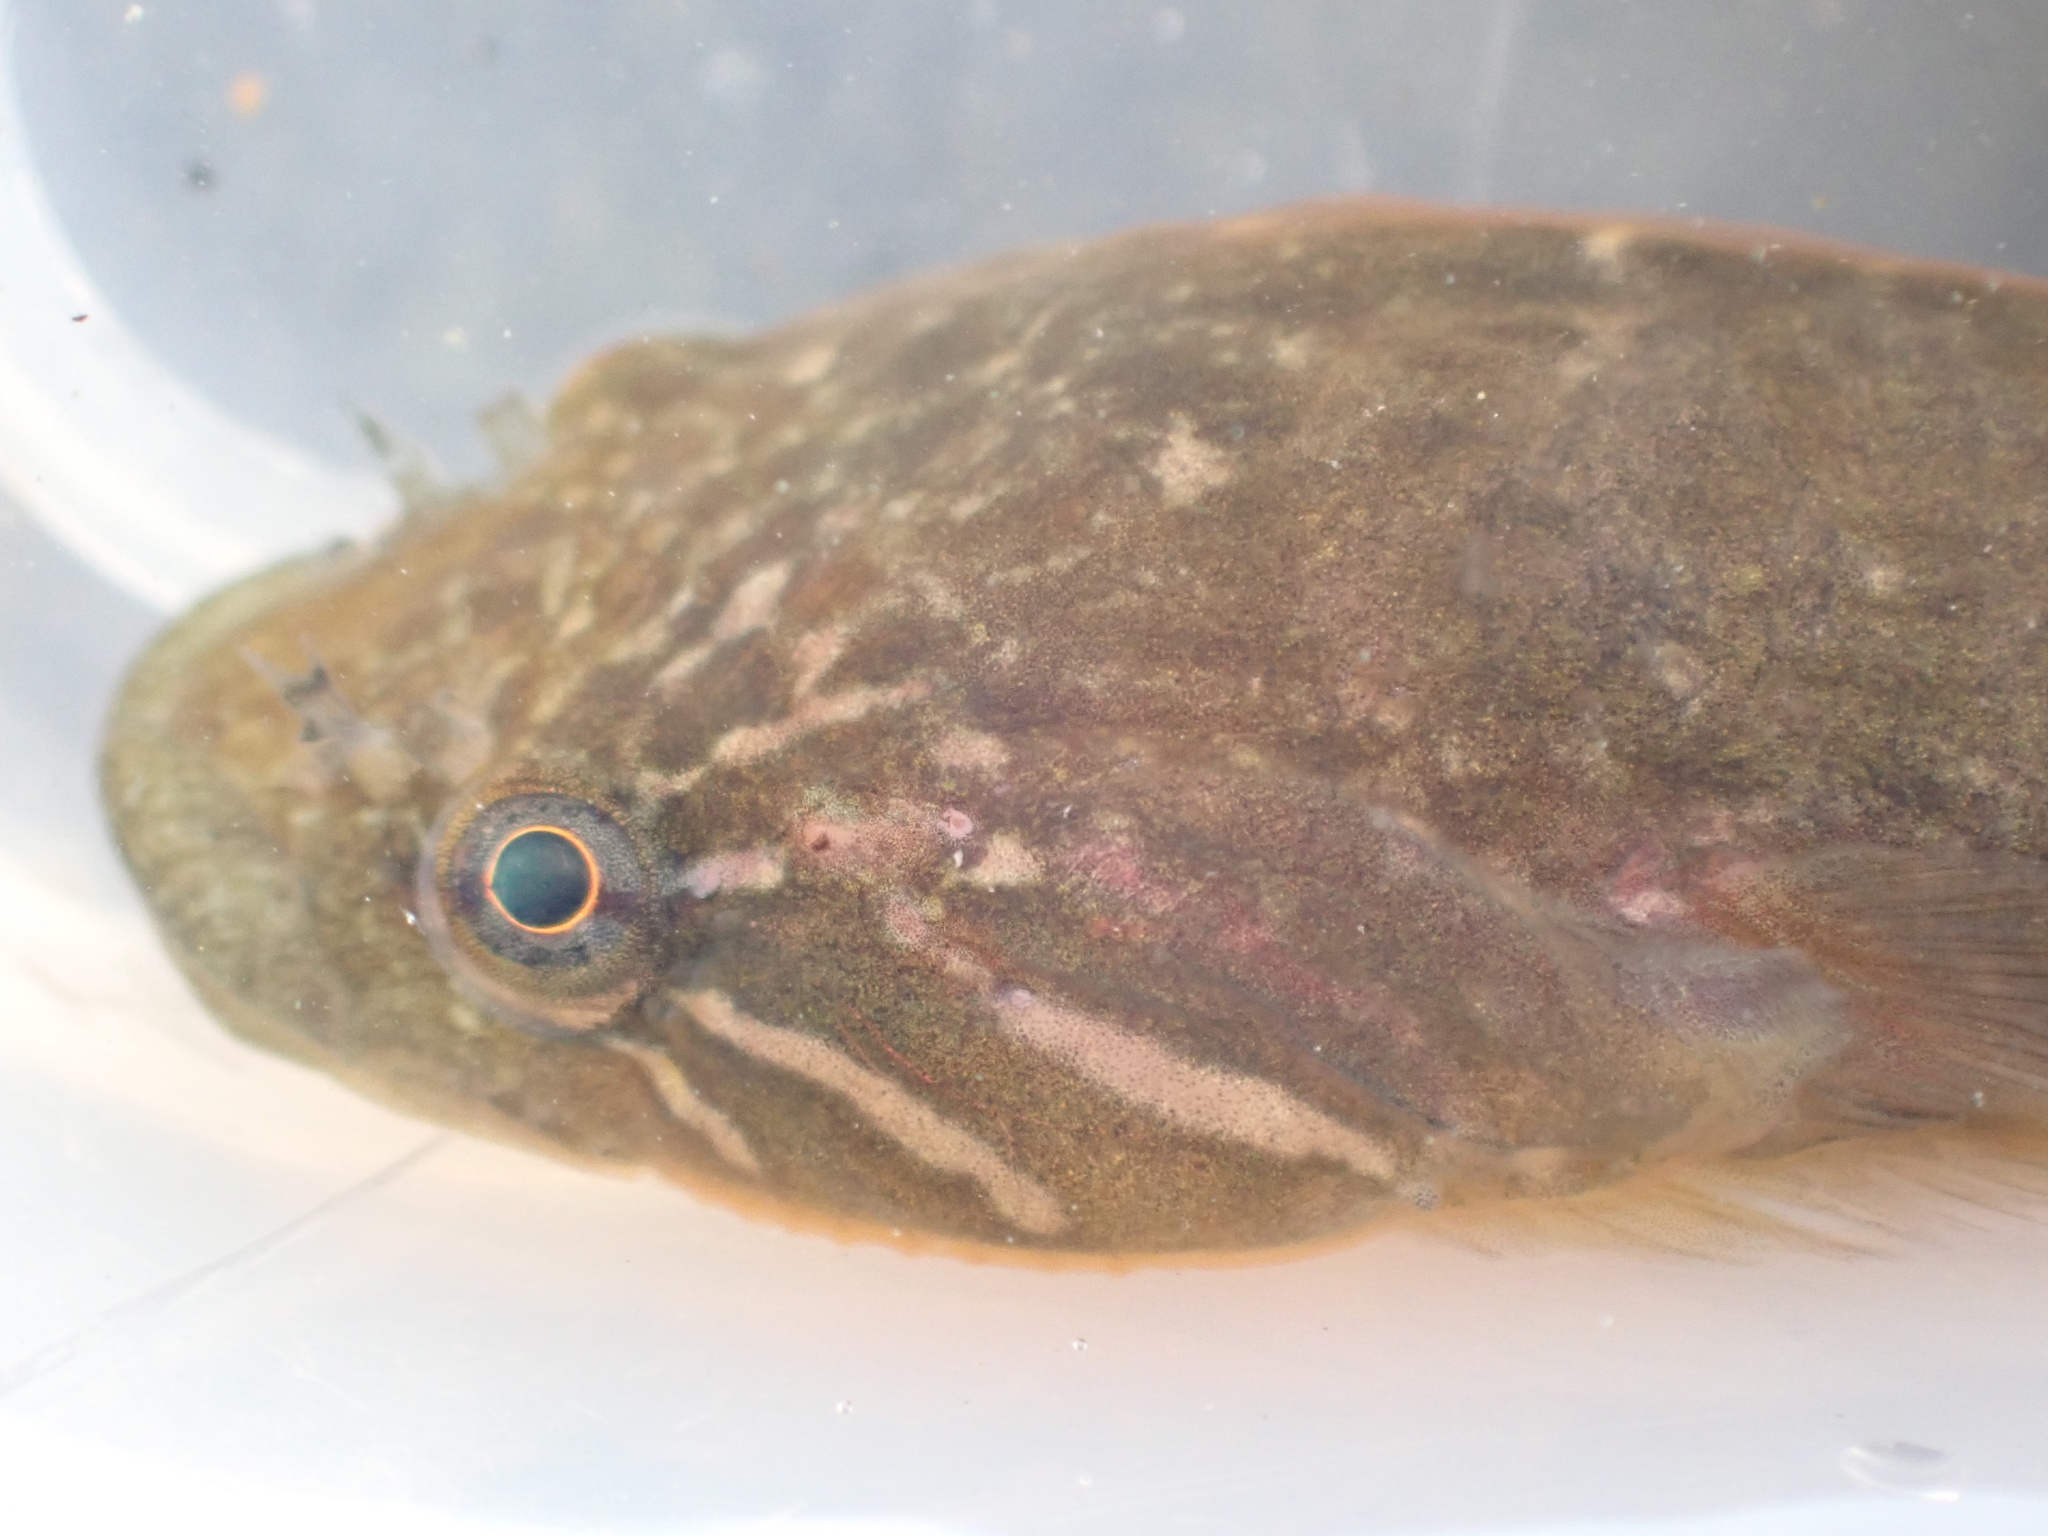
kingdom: Animalia
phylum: Chordata
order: Gobiesociformes
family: Gobiesocidae
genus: Trachelochismus
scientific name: Trachelochismus pinnulatus
